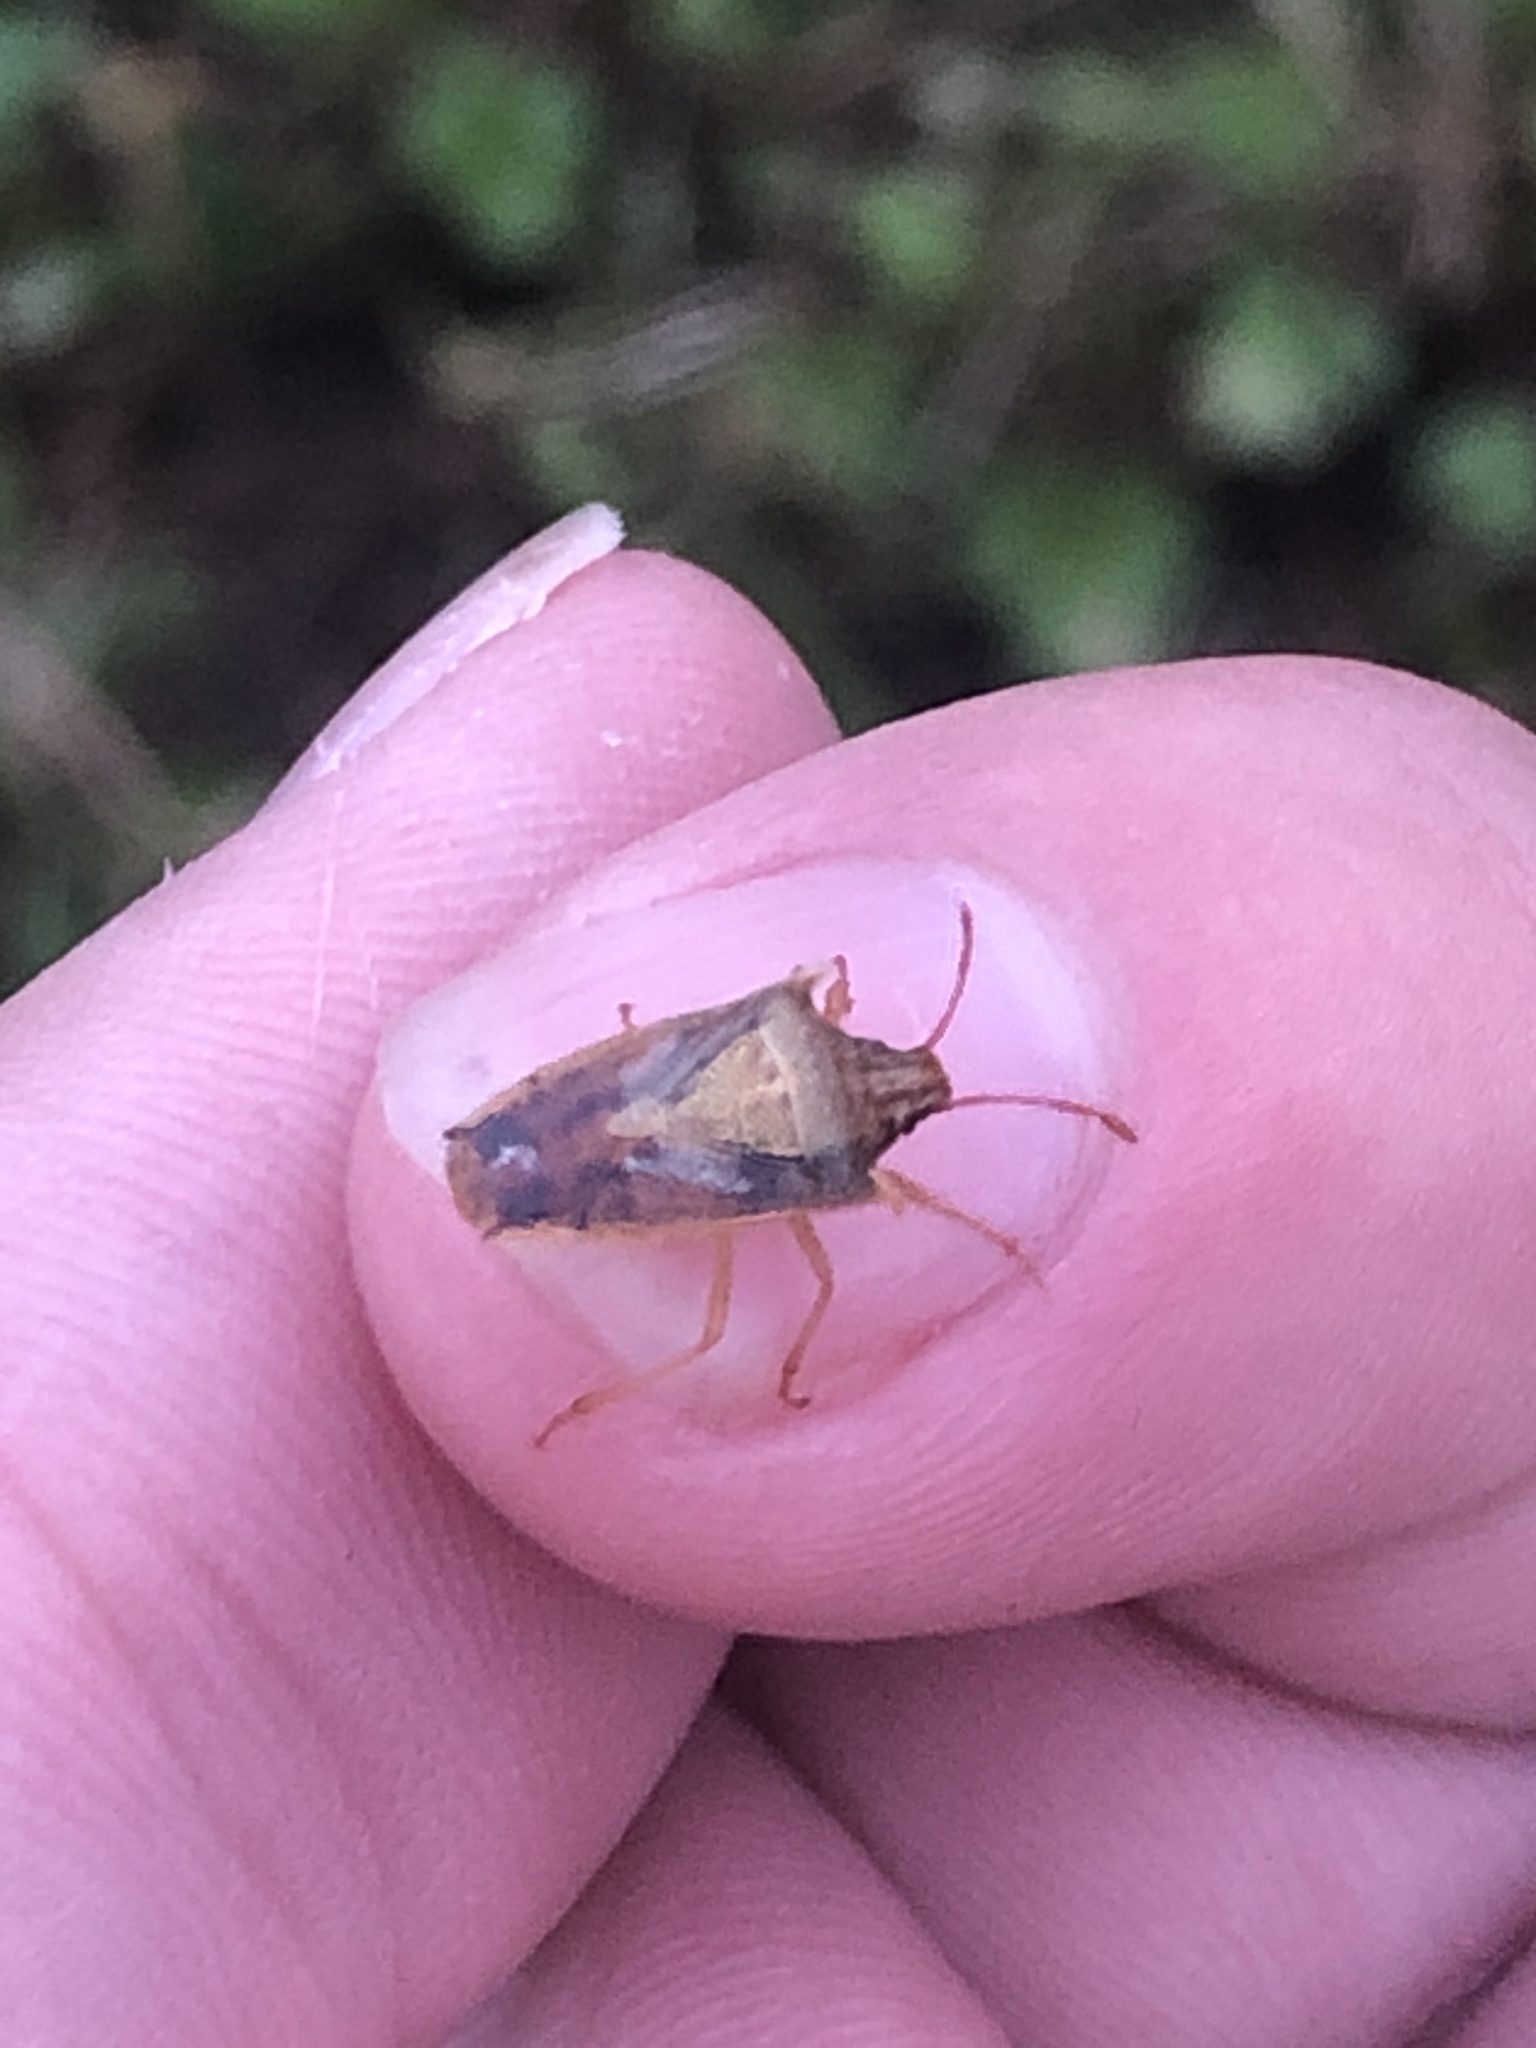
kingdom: Animalia
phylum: Arthropoda
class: Insecta
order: Hemiptera
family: Pentatomidae
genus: Oebalus
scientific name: Oebalus pugnax
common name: Rice stink bug
